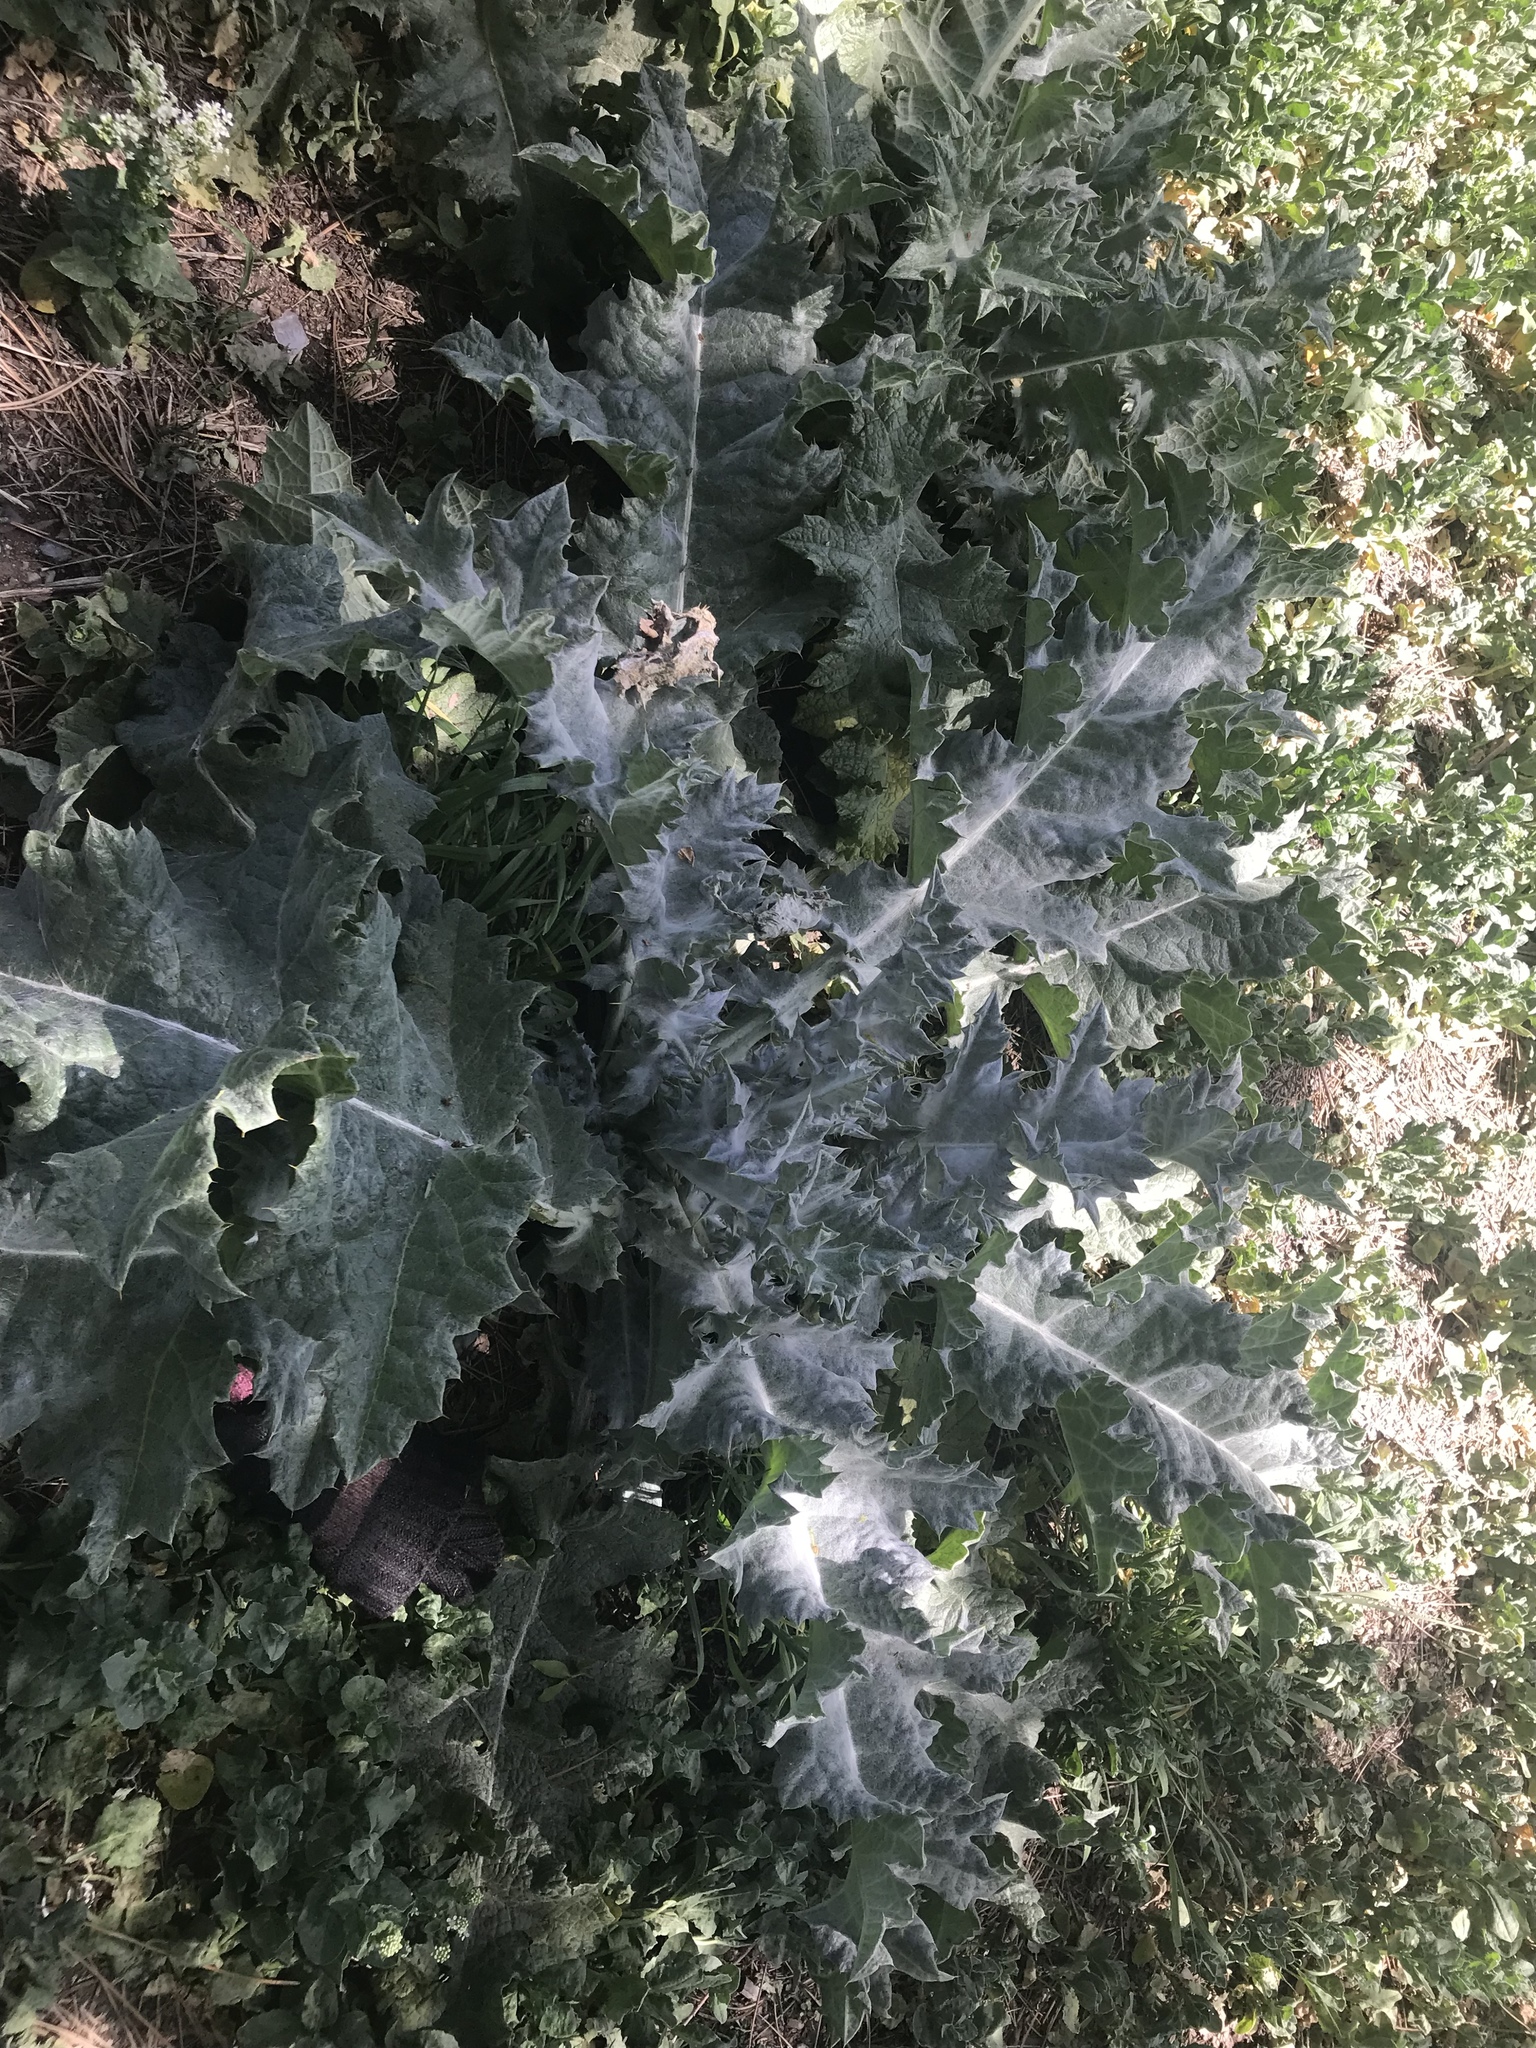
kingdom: Plantae
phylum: Tracheophyta
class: Magnoliopsida
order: Asterales
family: Asteraceae
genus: Onopordum
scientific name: Onopordum acanthium
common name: Scotch thistle
